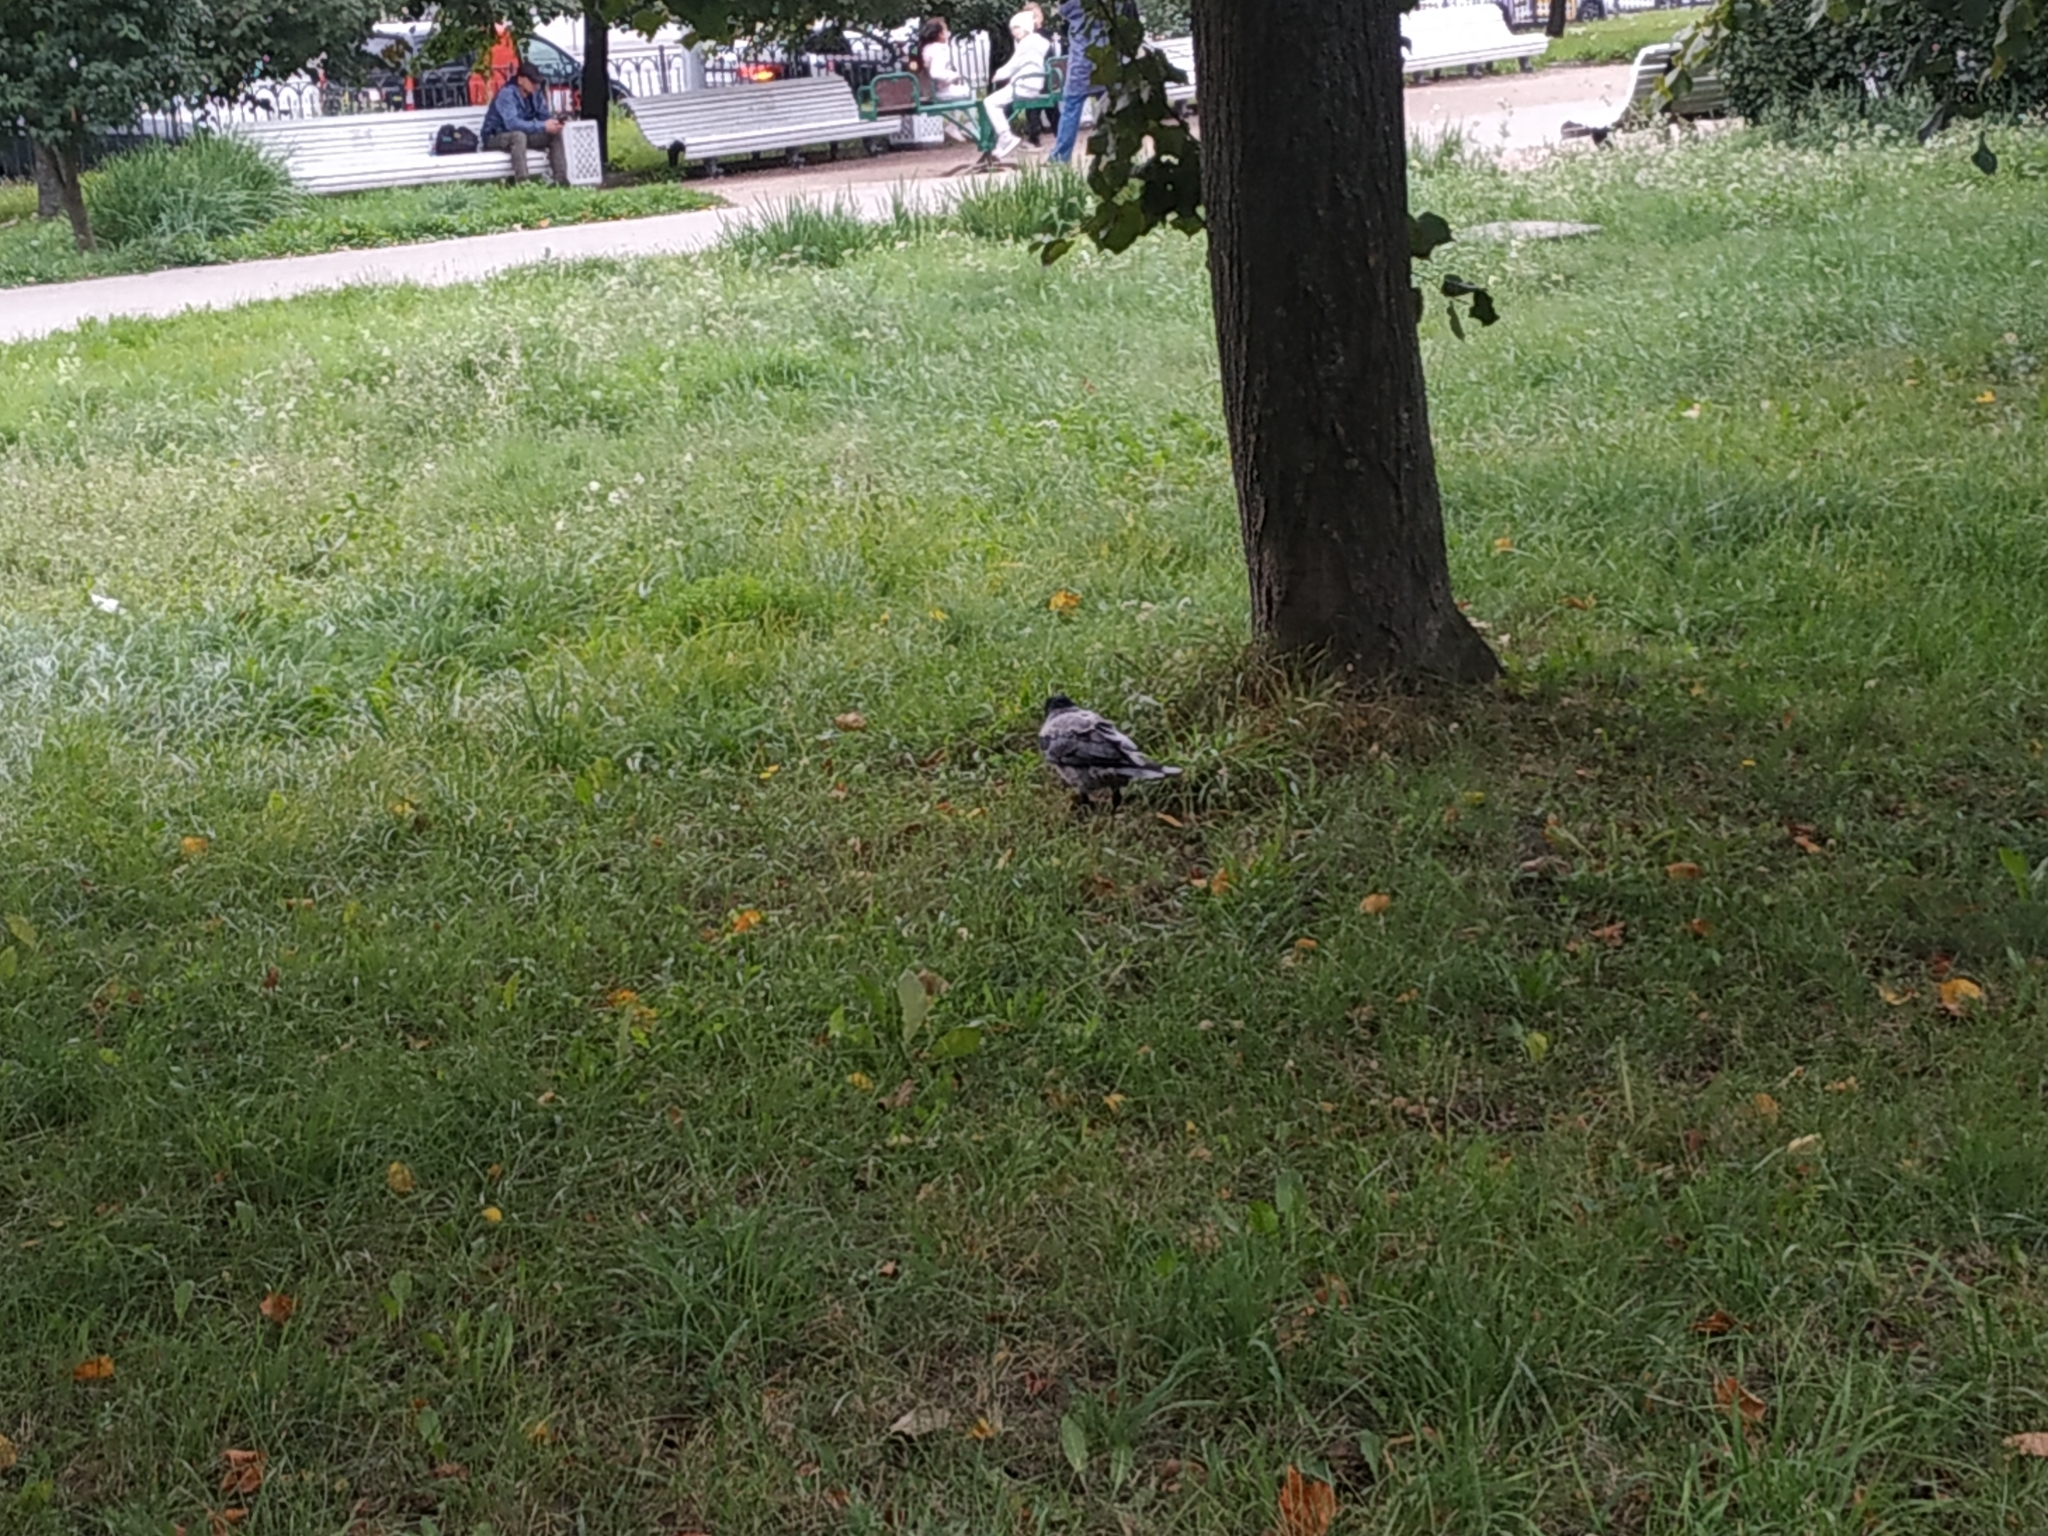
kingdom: Animalia
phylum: Chordata
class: Aves
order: Passeriformes
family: Corvidae
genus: Corvus
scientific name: Corvus cornix
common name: Hooded crow
